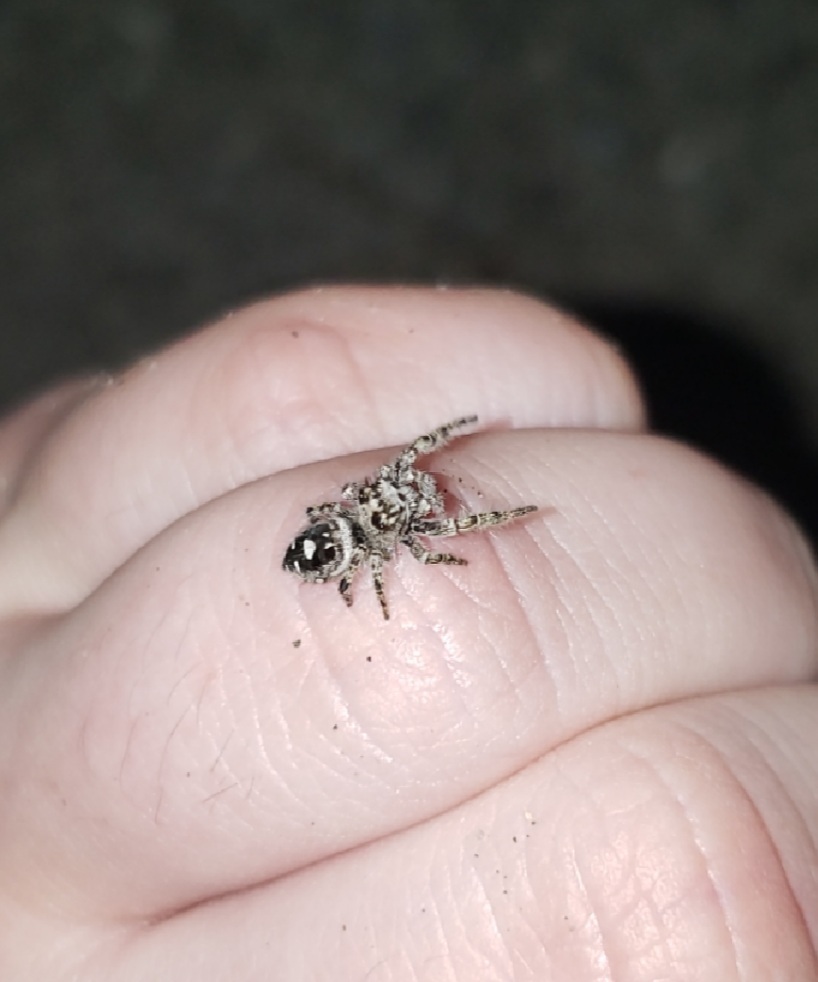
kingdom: Animalia
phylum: Arthropoda
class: Arachnida
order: Araneae
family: Salticidae
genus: Phidippus
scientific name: Phidippus putnami
